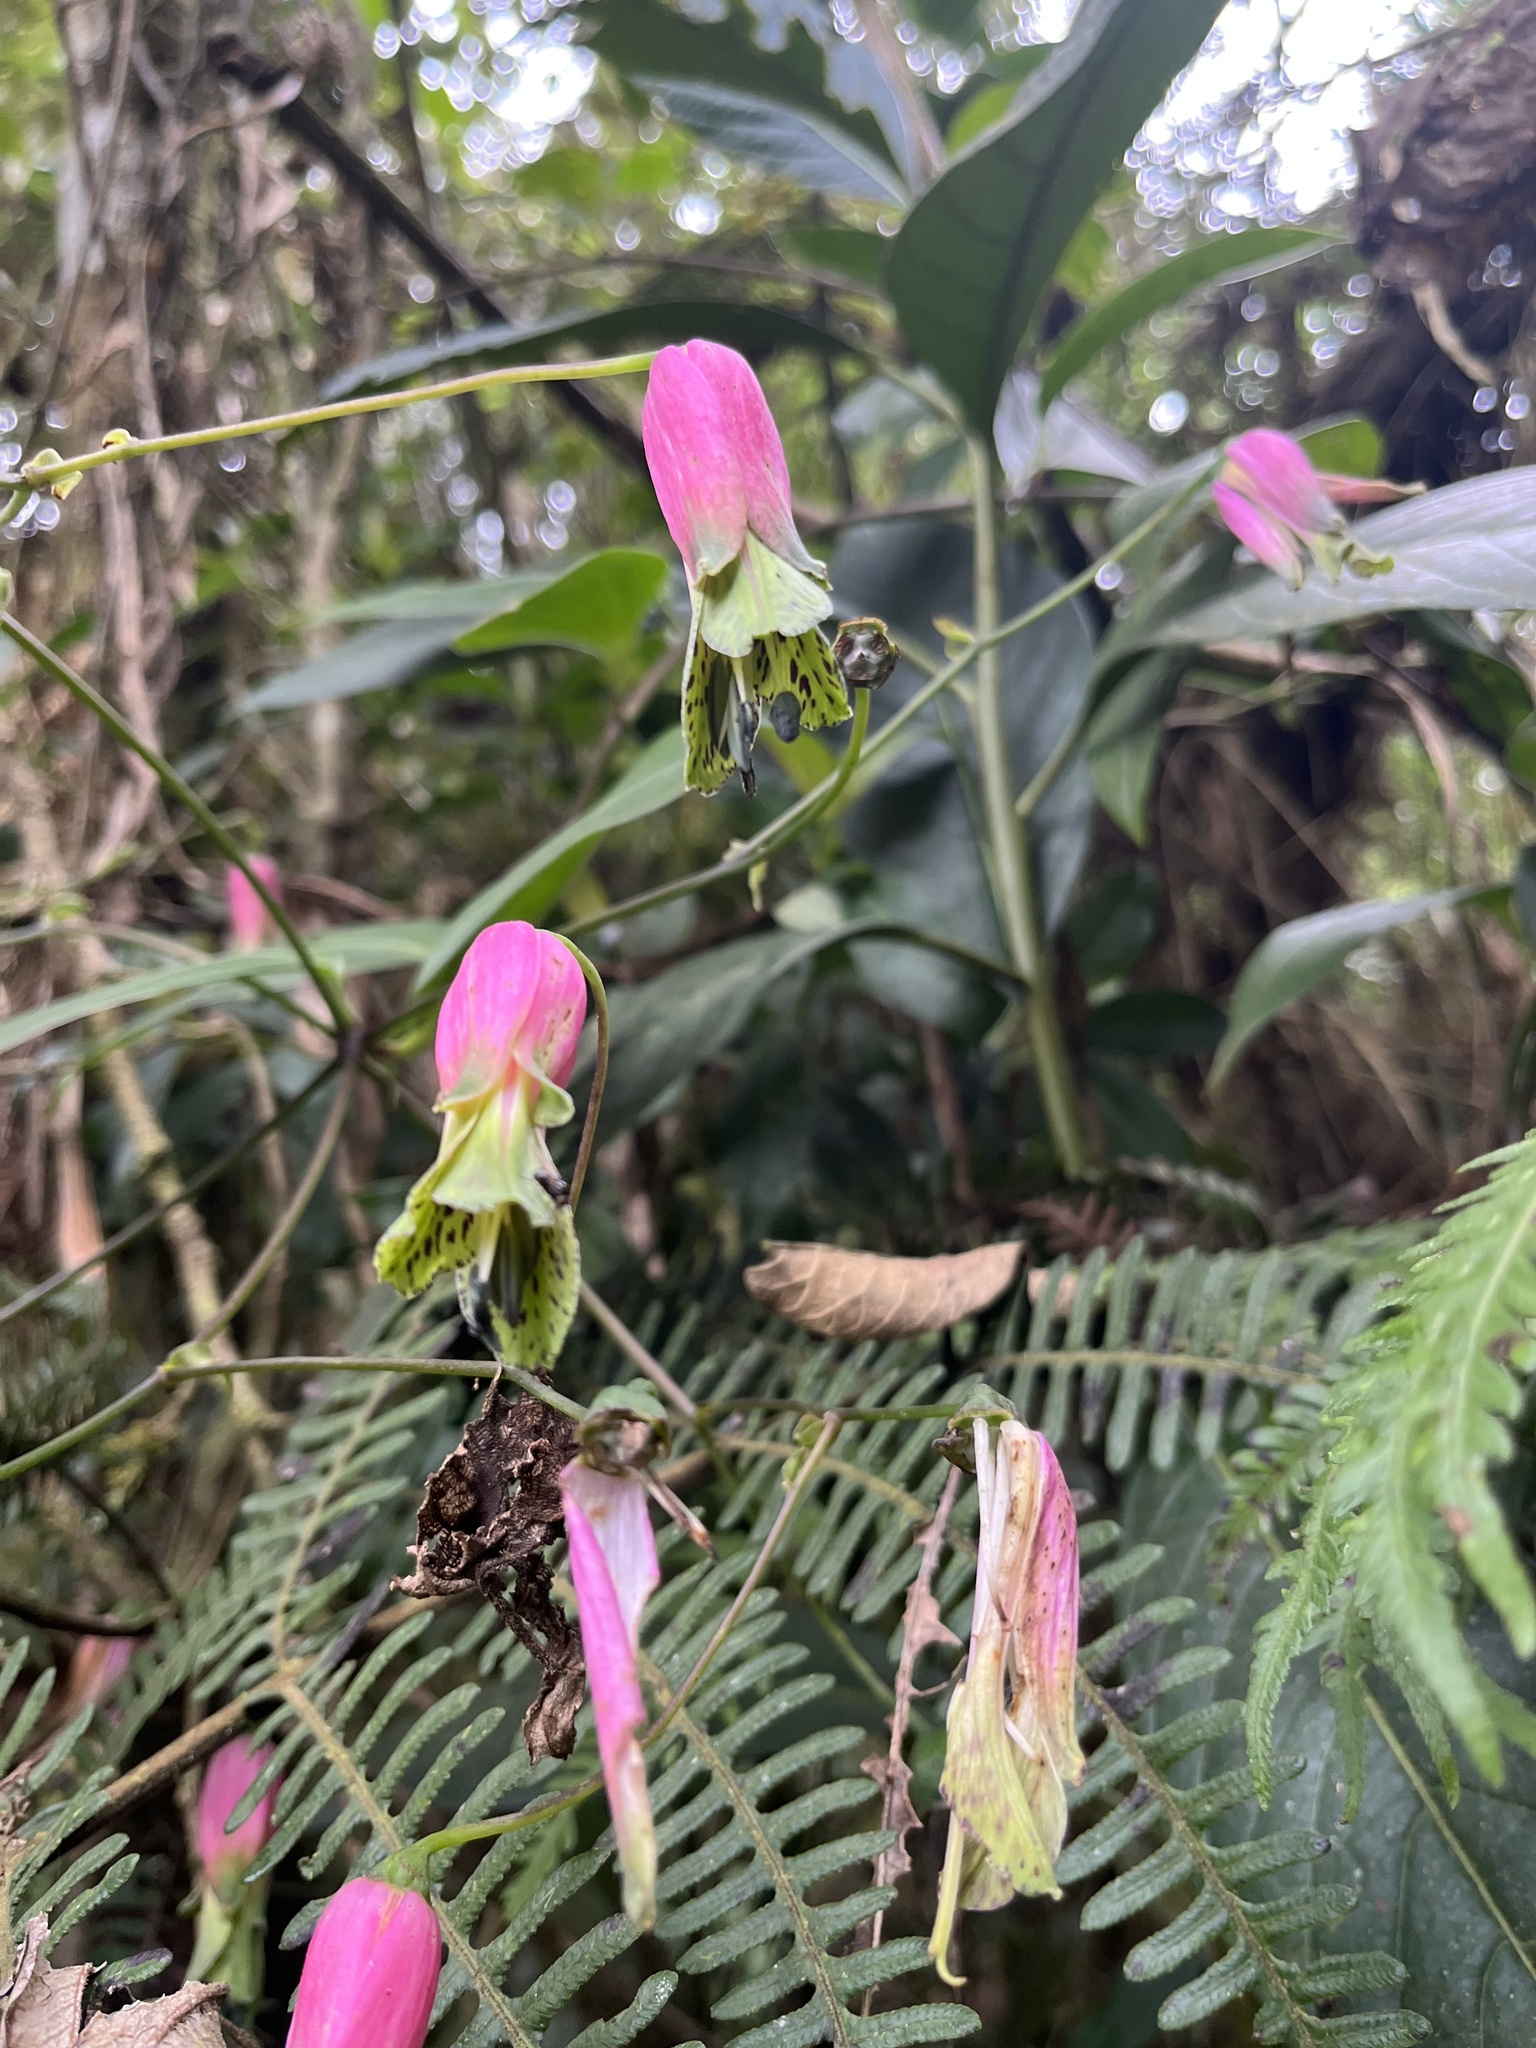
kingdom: Plantae
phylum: Tracheophyta
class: Liliopsida
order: Liliales
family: Alstroemeriaceae
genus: Bomarea
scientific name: Bomarea diffracta
